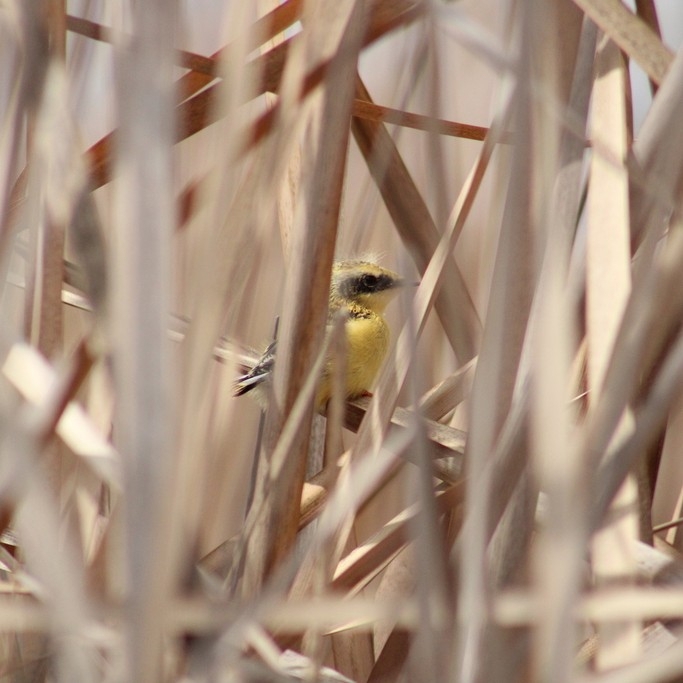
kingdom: Animalia
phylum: Chordata
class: Aves
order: Passeriformes
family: Tyrannidae
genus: Tachuris
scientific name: Tachuris rubrigastra
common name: Many-colored rush tyrant
